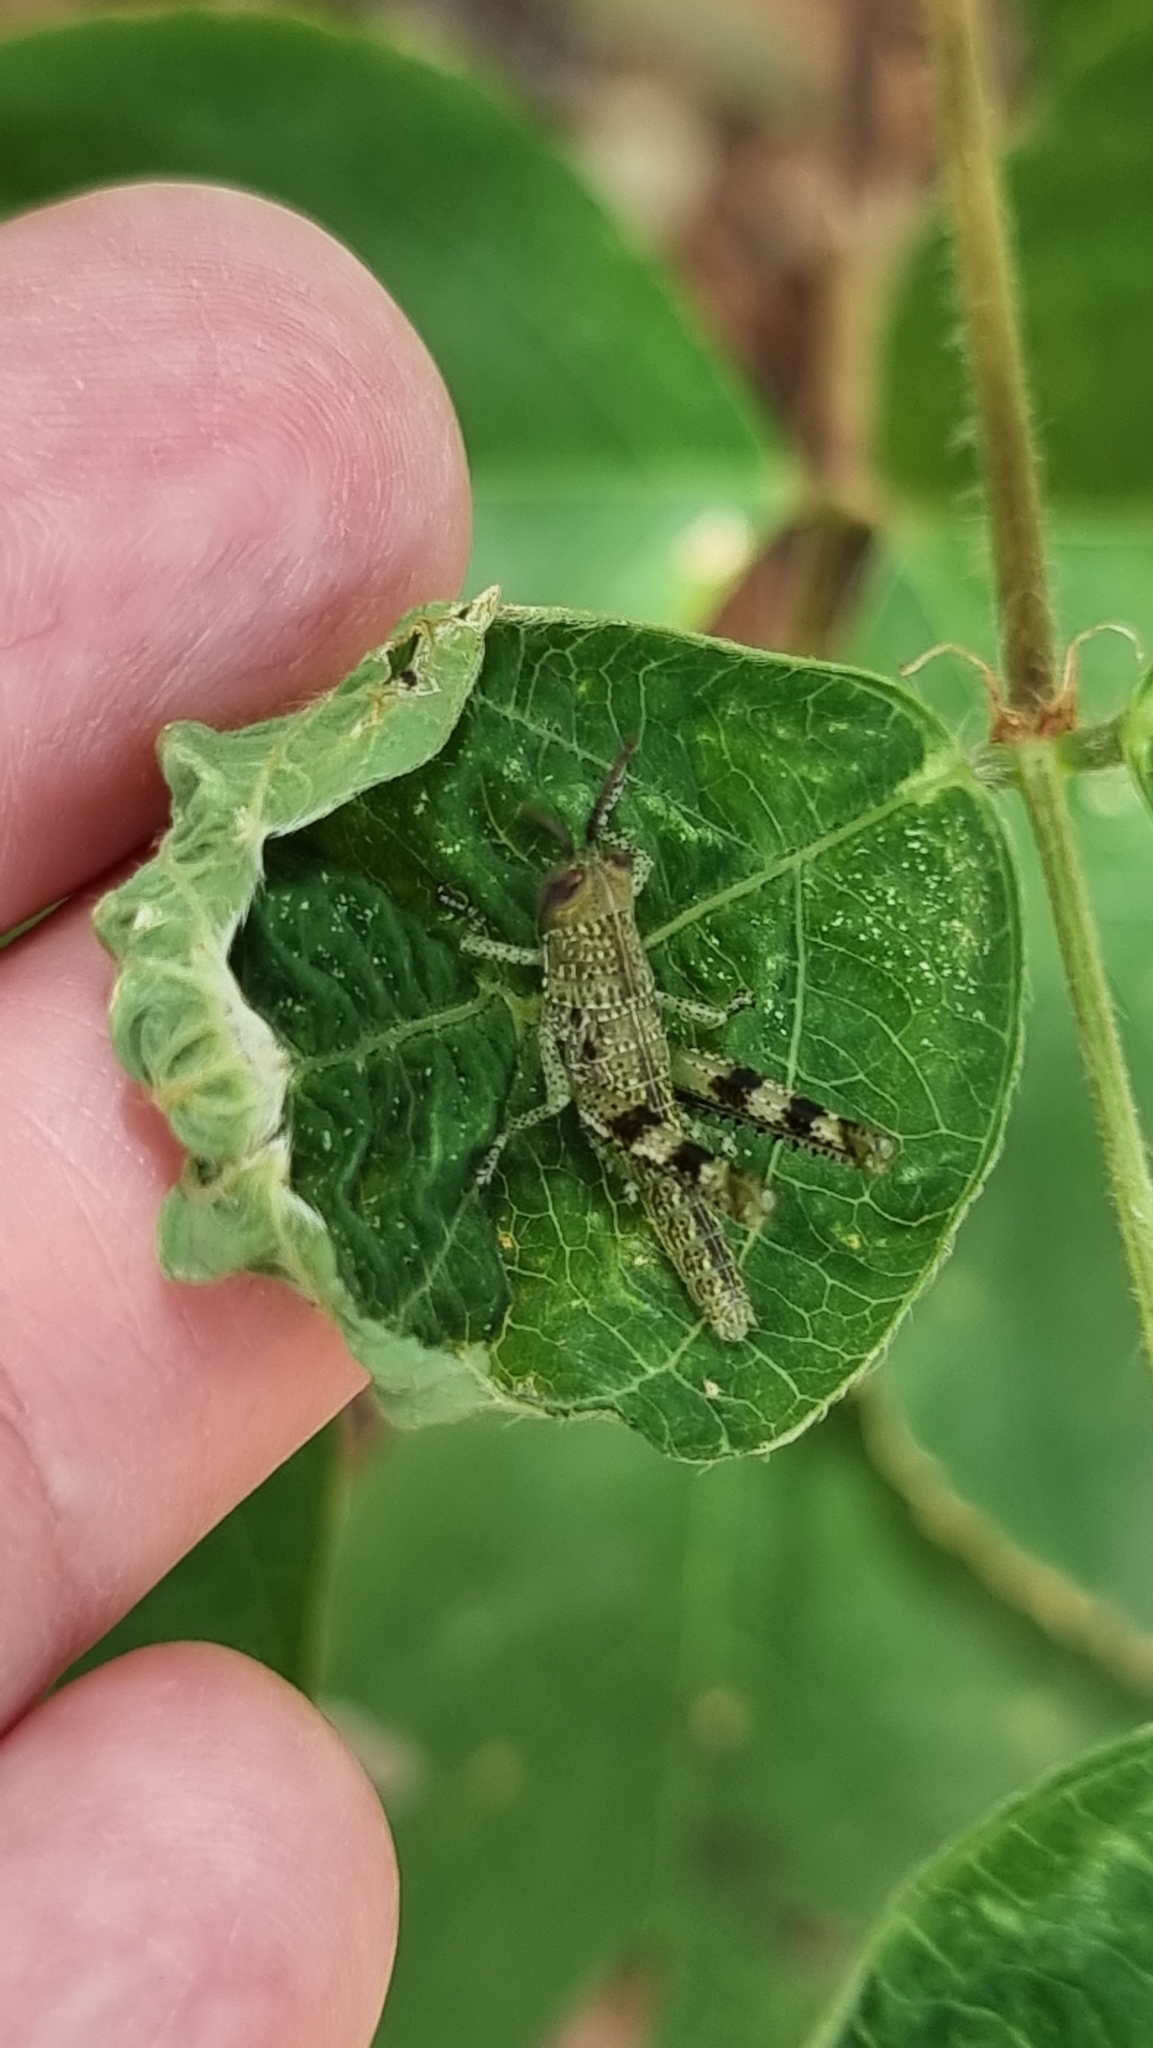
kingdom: Animalia
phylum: Arthropoda
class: Insecta
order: Orthoptera
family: Acrididae
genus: Valanga
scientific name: Valanga irregularis
